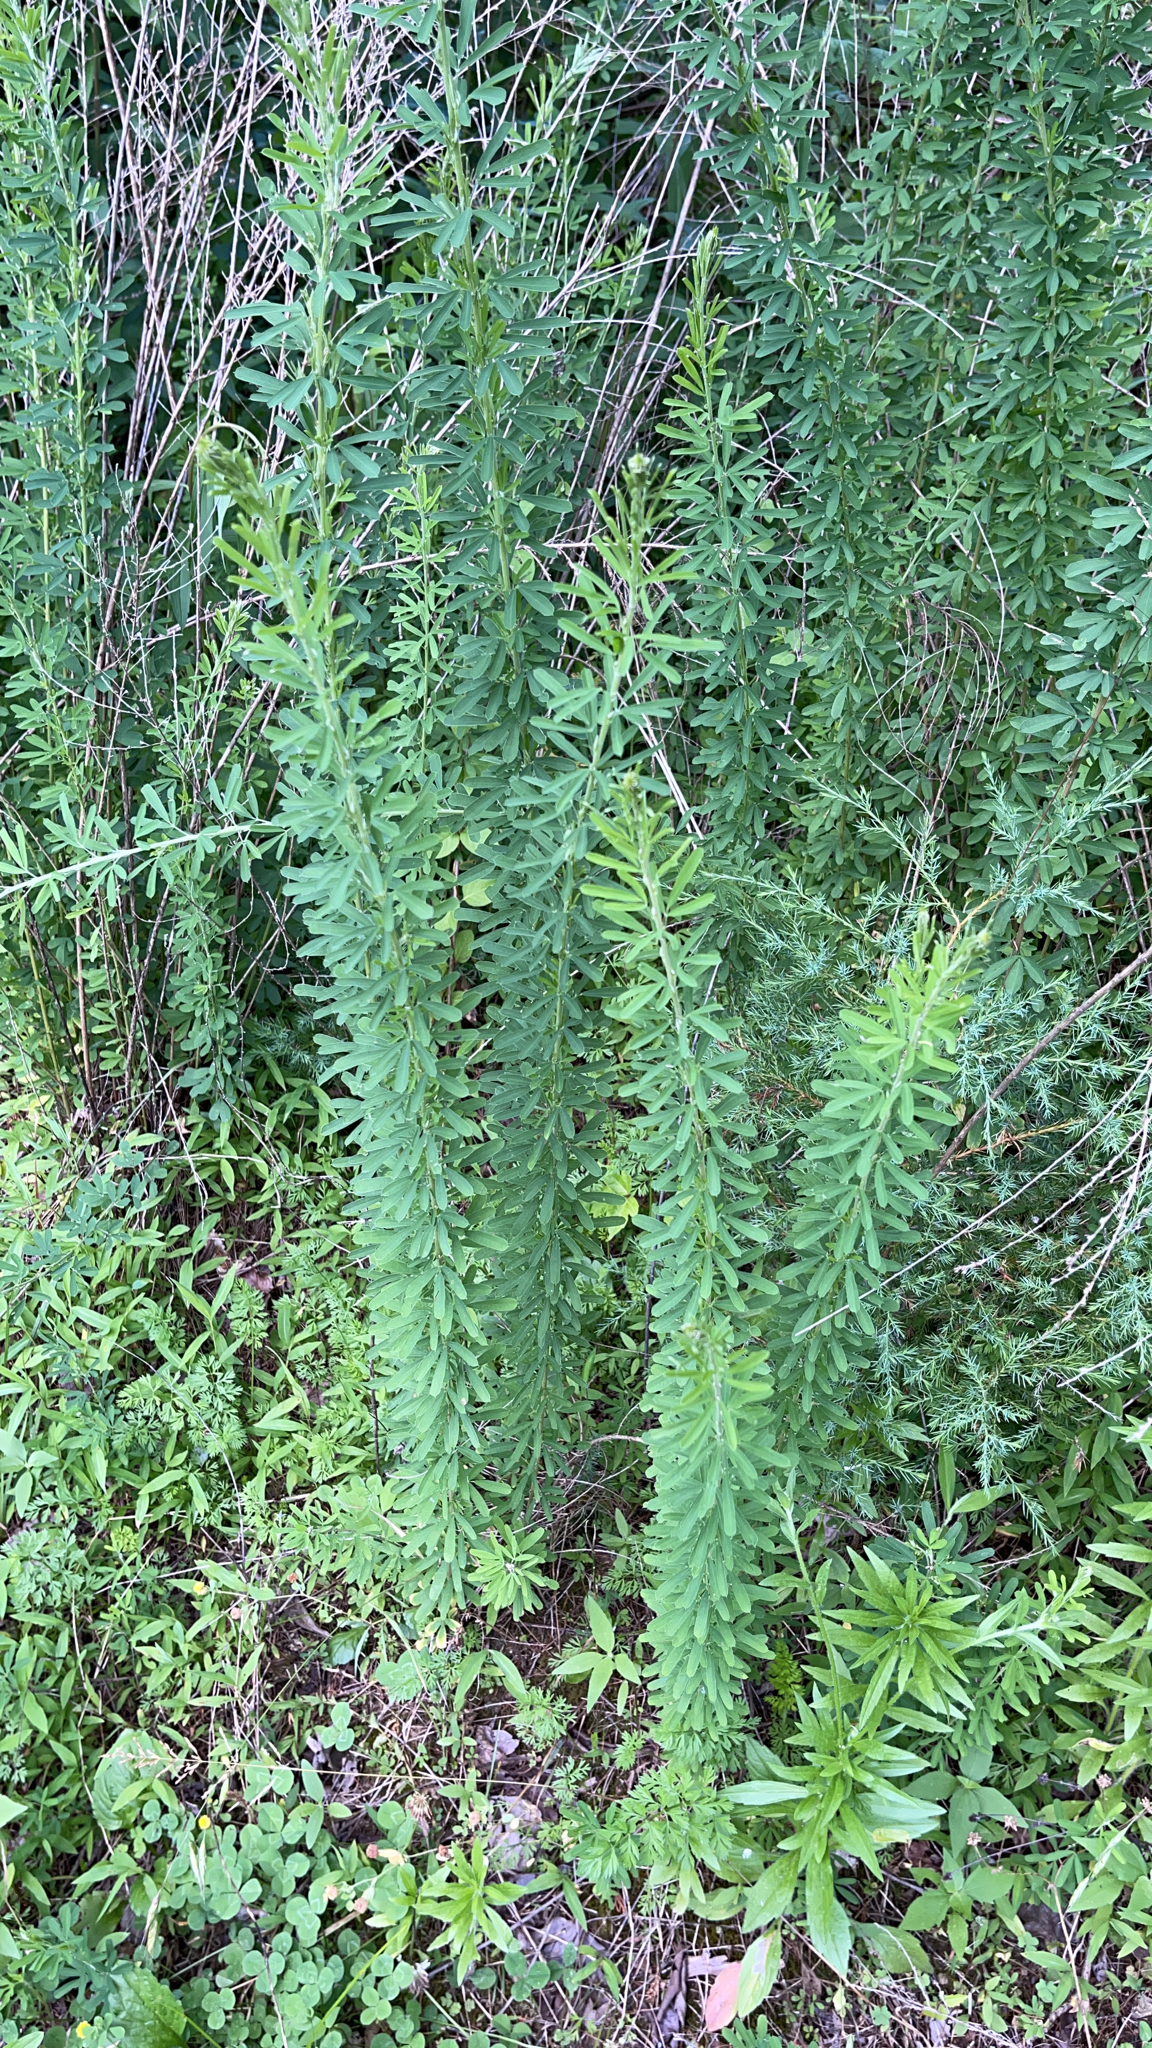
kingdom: Plantae
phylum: Tracheophyta
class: Magnoliopsida
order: Fabales
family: Fabaceae
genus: Lespedeza
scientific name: Lespedeza cuneata
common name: Chinese bush-clover
